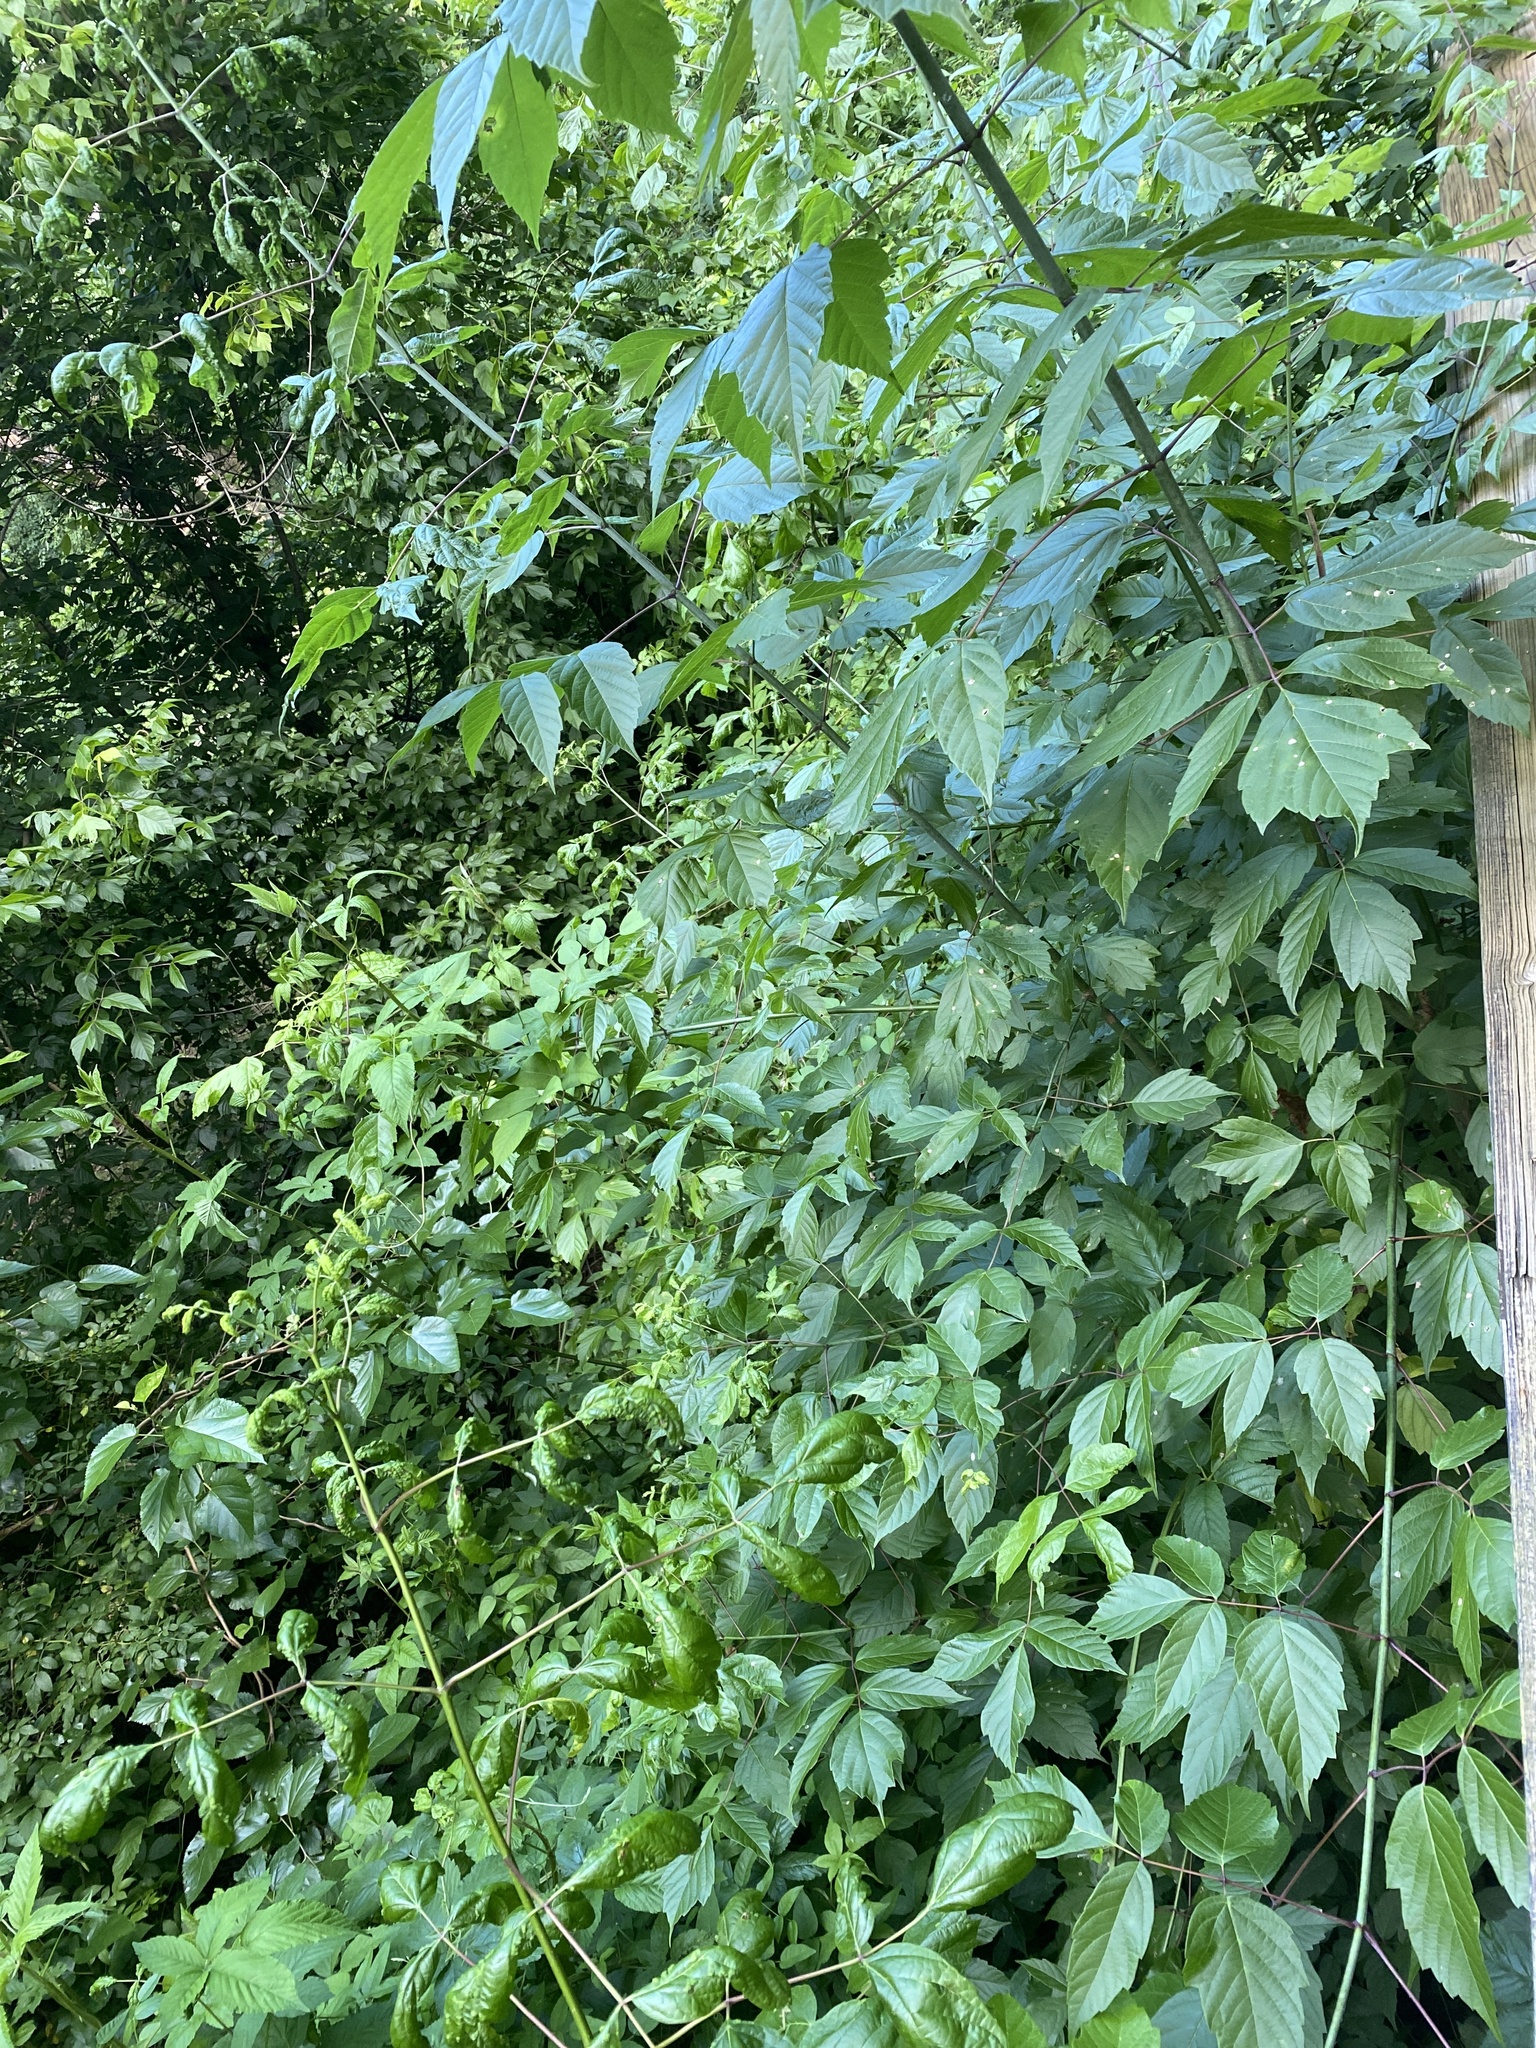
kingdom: Plantae
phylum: Tracheophyta
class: Magnoliopsida
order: Sapindales
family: Sapindaceae
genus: Acer
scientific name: Acer negundo
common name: Ashleaf maple
